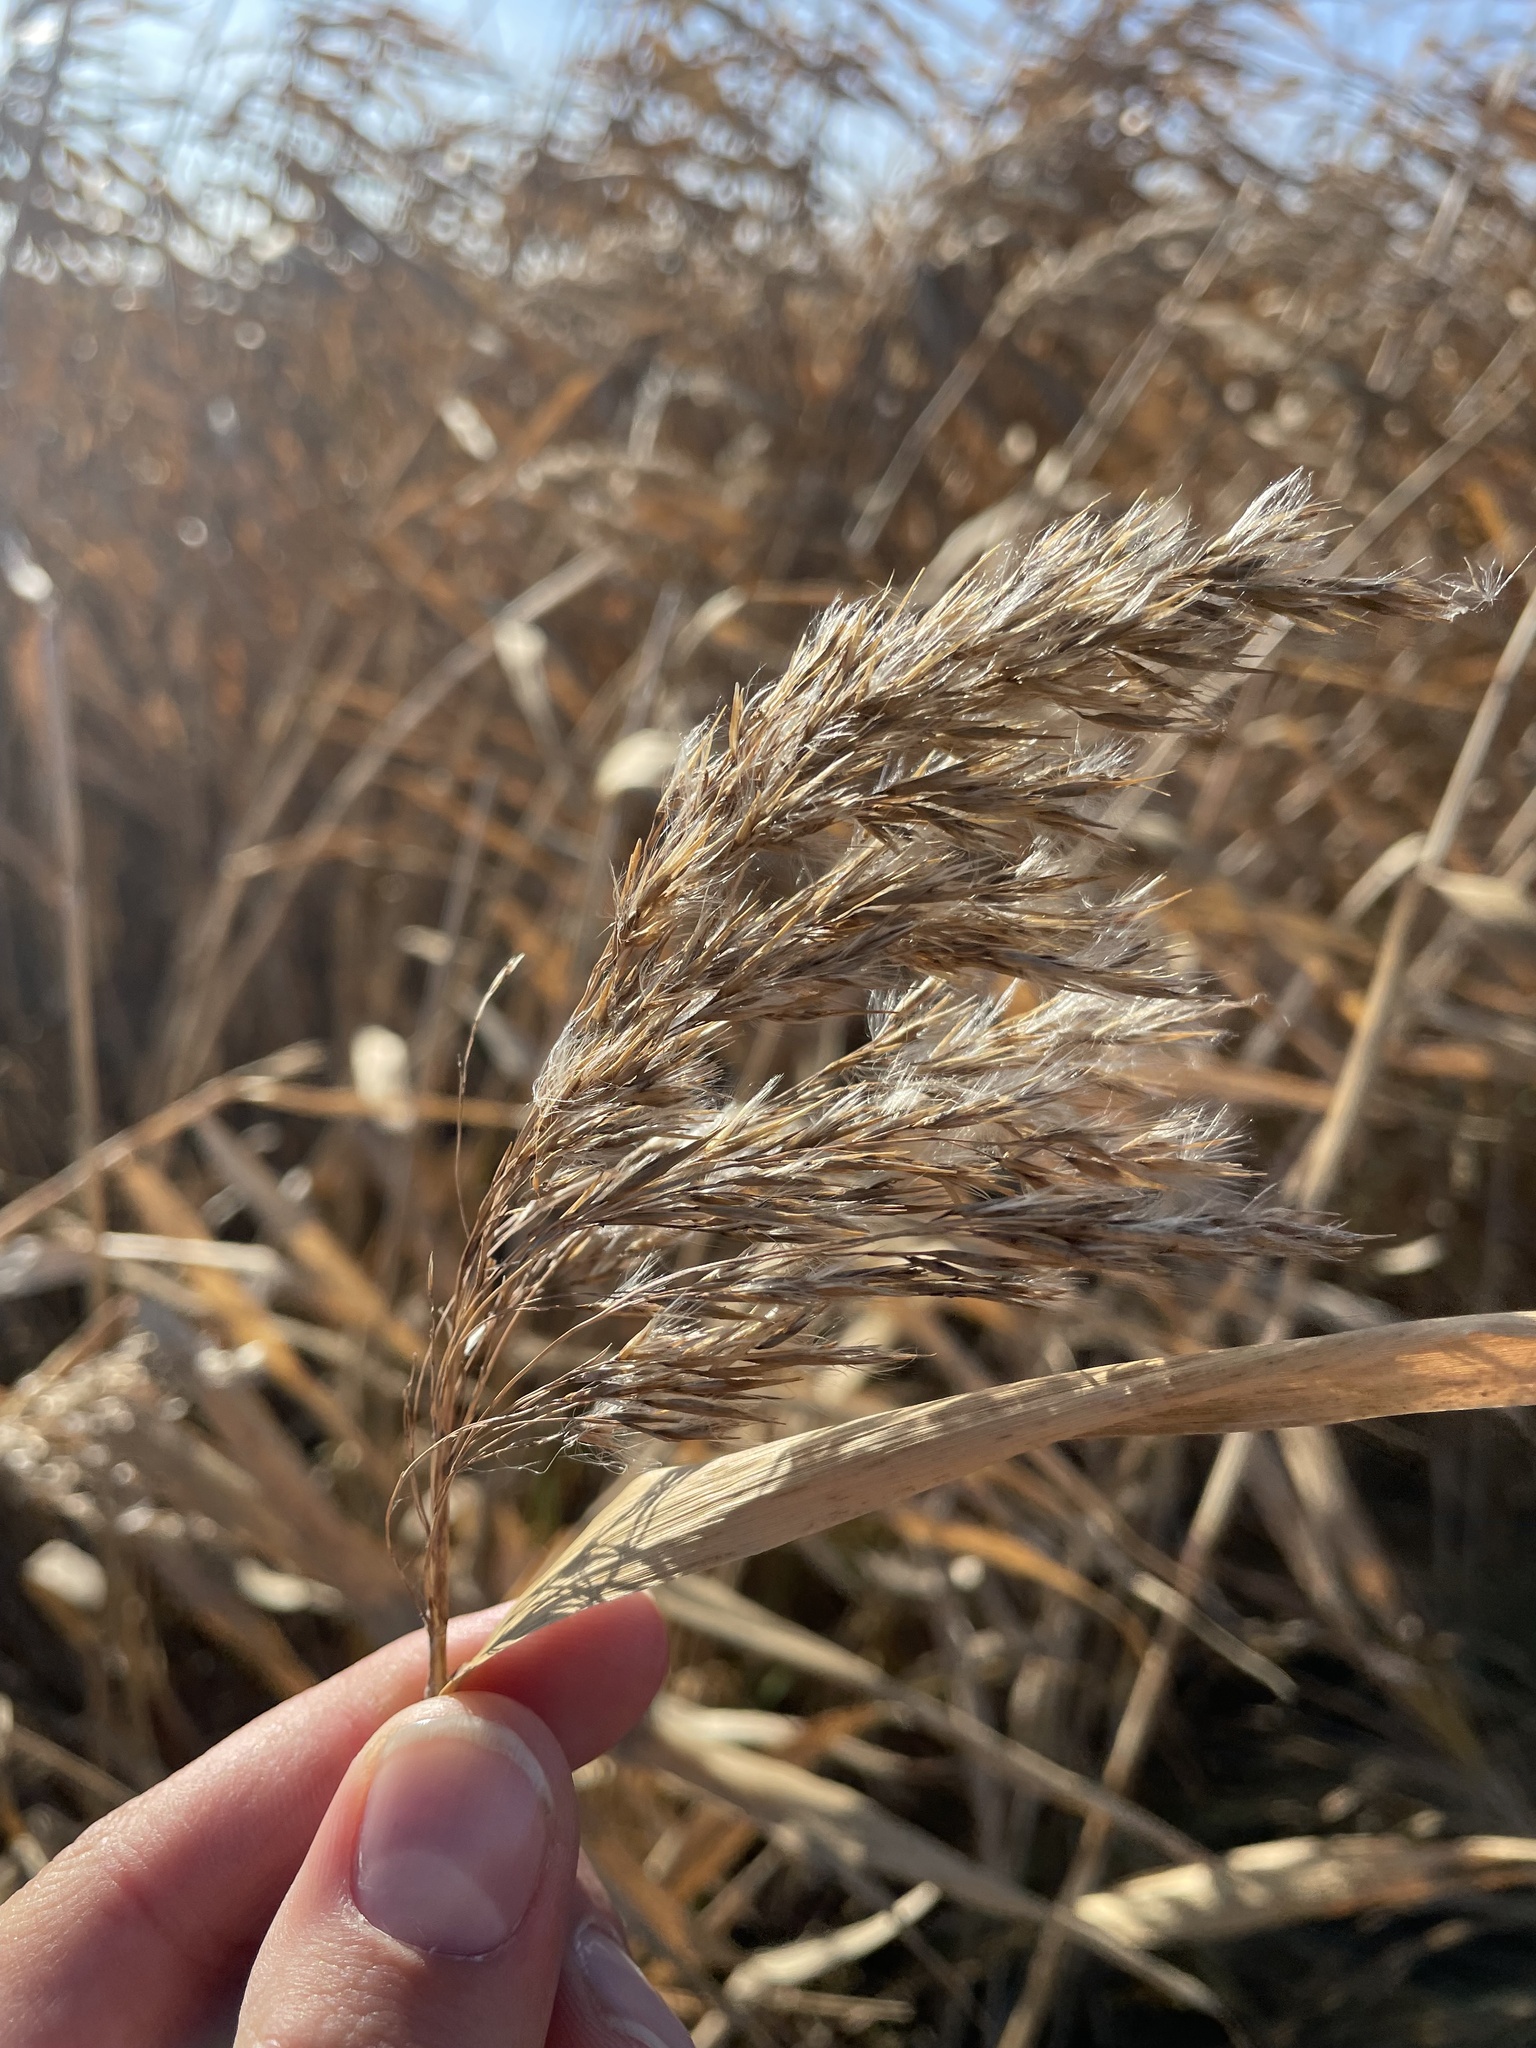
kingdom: Plantae
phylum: Tracheophyta
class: Liliopsida
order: Poales
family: Poaceae
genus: Phragmites
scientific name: Phragmites australis
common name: Common reed
